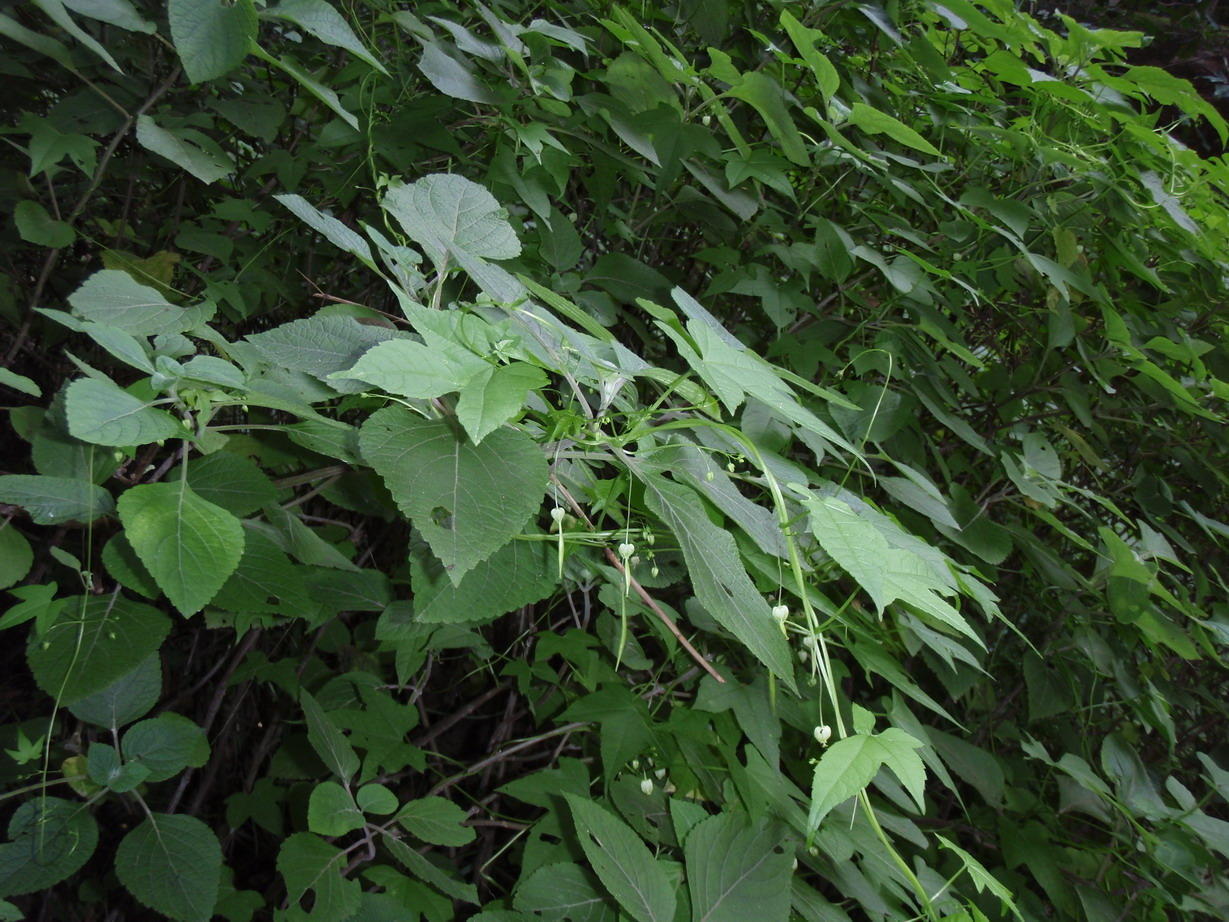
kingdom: Plantae
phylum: Tracheophyta
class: Magnoliopsida
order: Malpighiales
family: Achariaceae
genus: Ceratiosicyos
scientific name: Ceratiosicyos laevis
